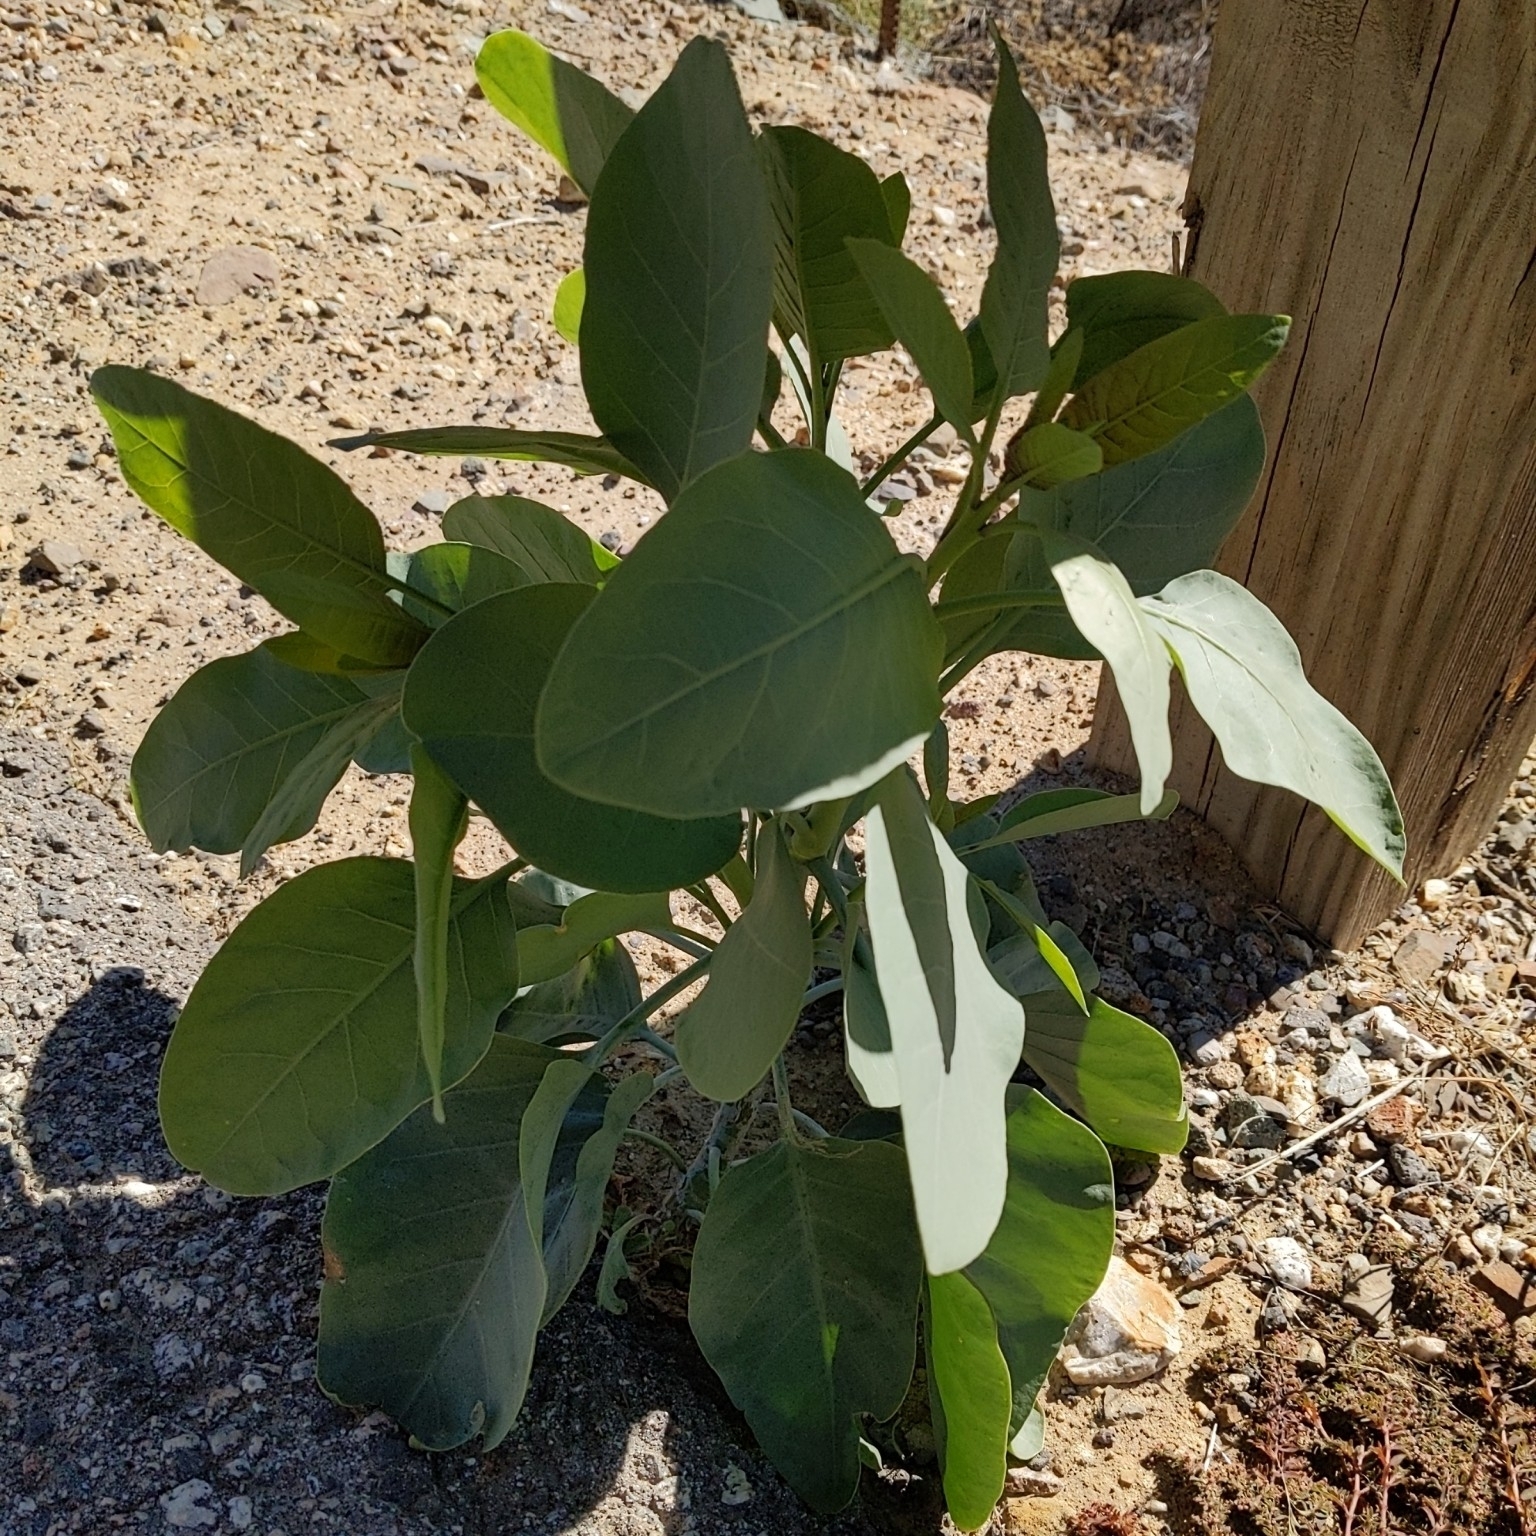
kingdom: Plantae
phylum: Tracheophyta
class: Magnoliopsida
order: Solanales
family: Solanaceae
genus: Nicotiana
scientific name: Nicotiana glauca
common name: Tree tobacco
